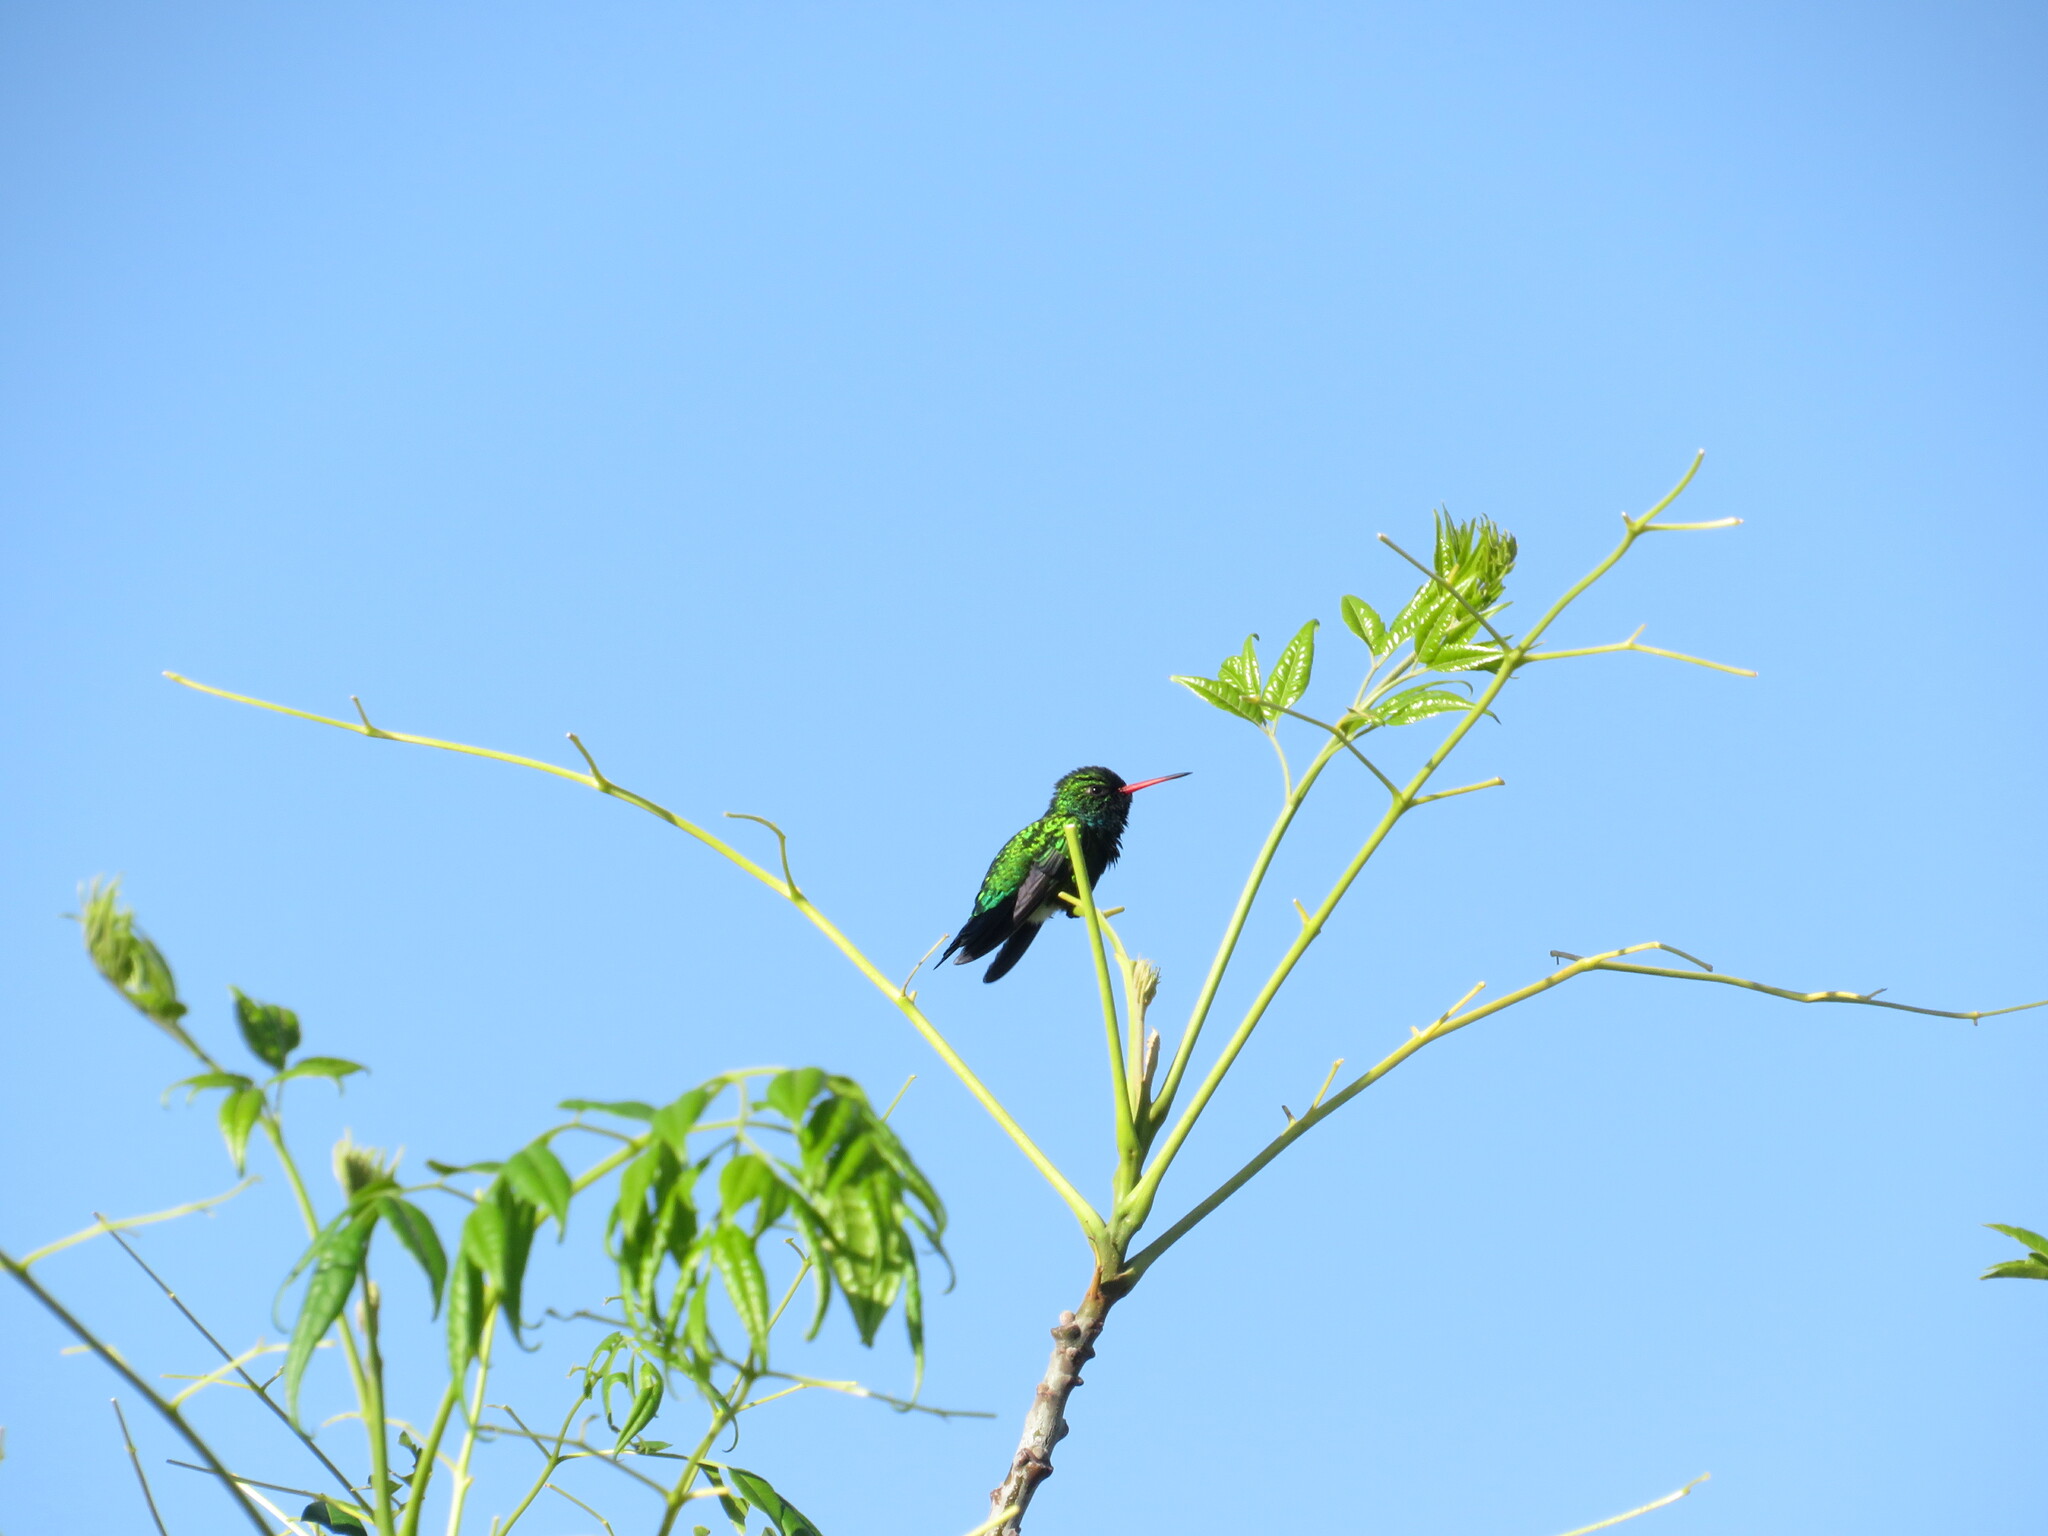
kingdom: Animalia
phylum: Chordata
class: Aves
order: Apodiformes
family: Trochilidae
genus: Chlorostilbon
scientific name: Chlorostilbon lucidus
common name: Glittering-bellied emerald
